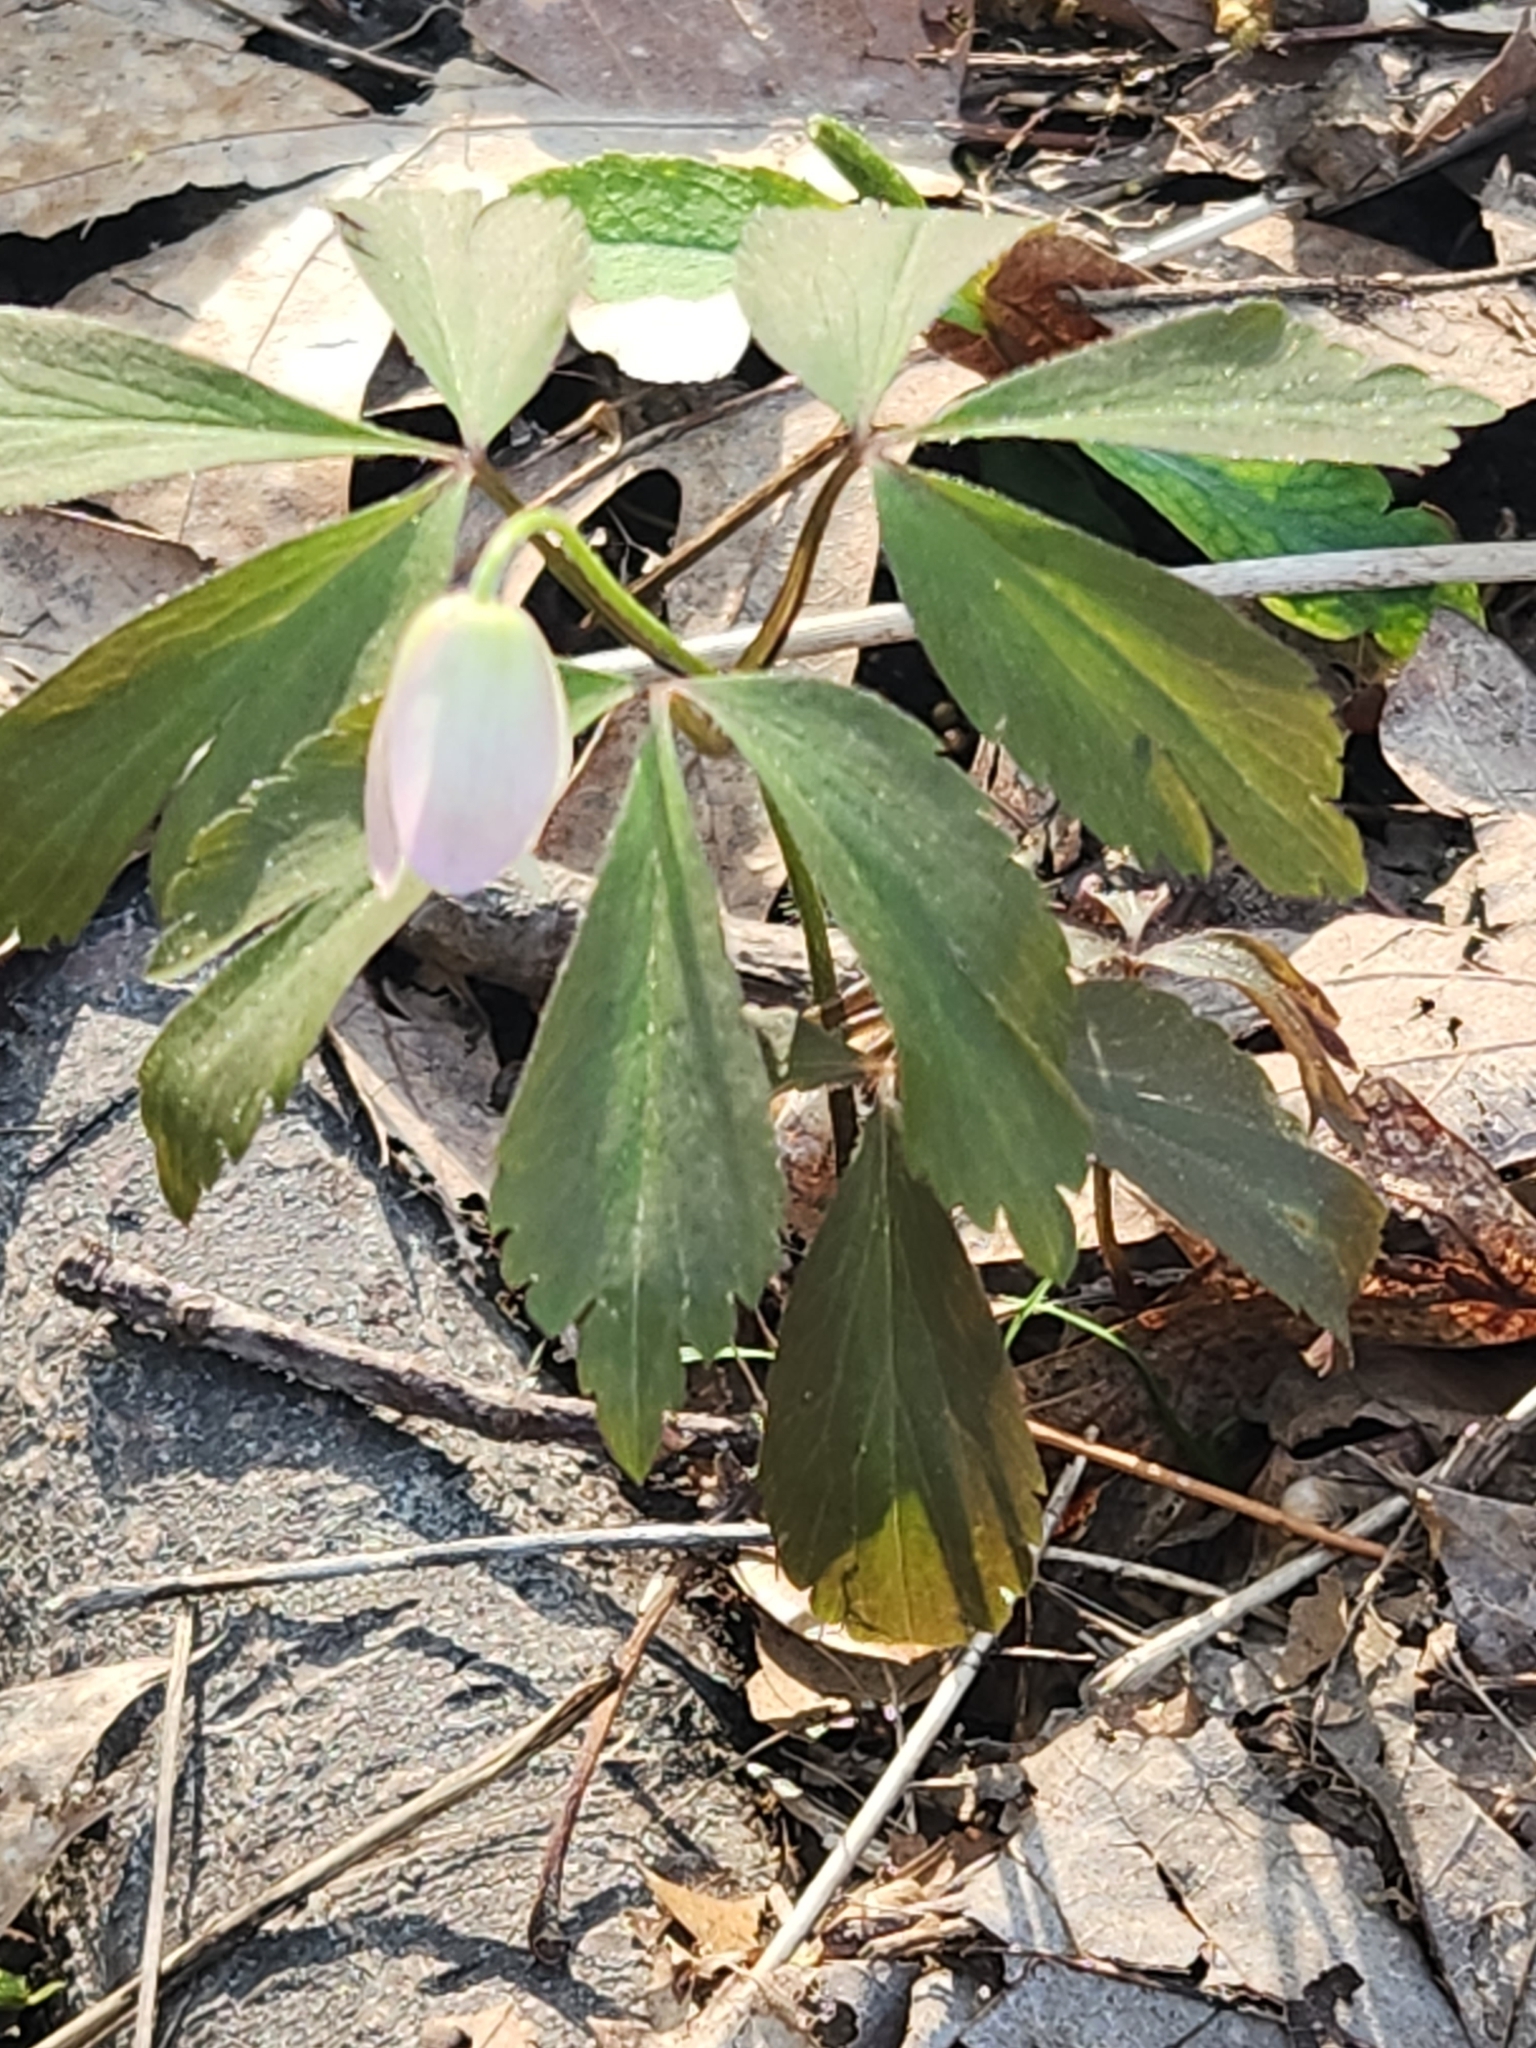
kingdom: Plantae
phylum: Tracheophyta
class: Magnoliopsida
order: Ranunculales
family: Ranunculaceae
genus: Anemone
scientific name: Anemone quinquefolia
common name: Wood anemone
